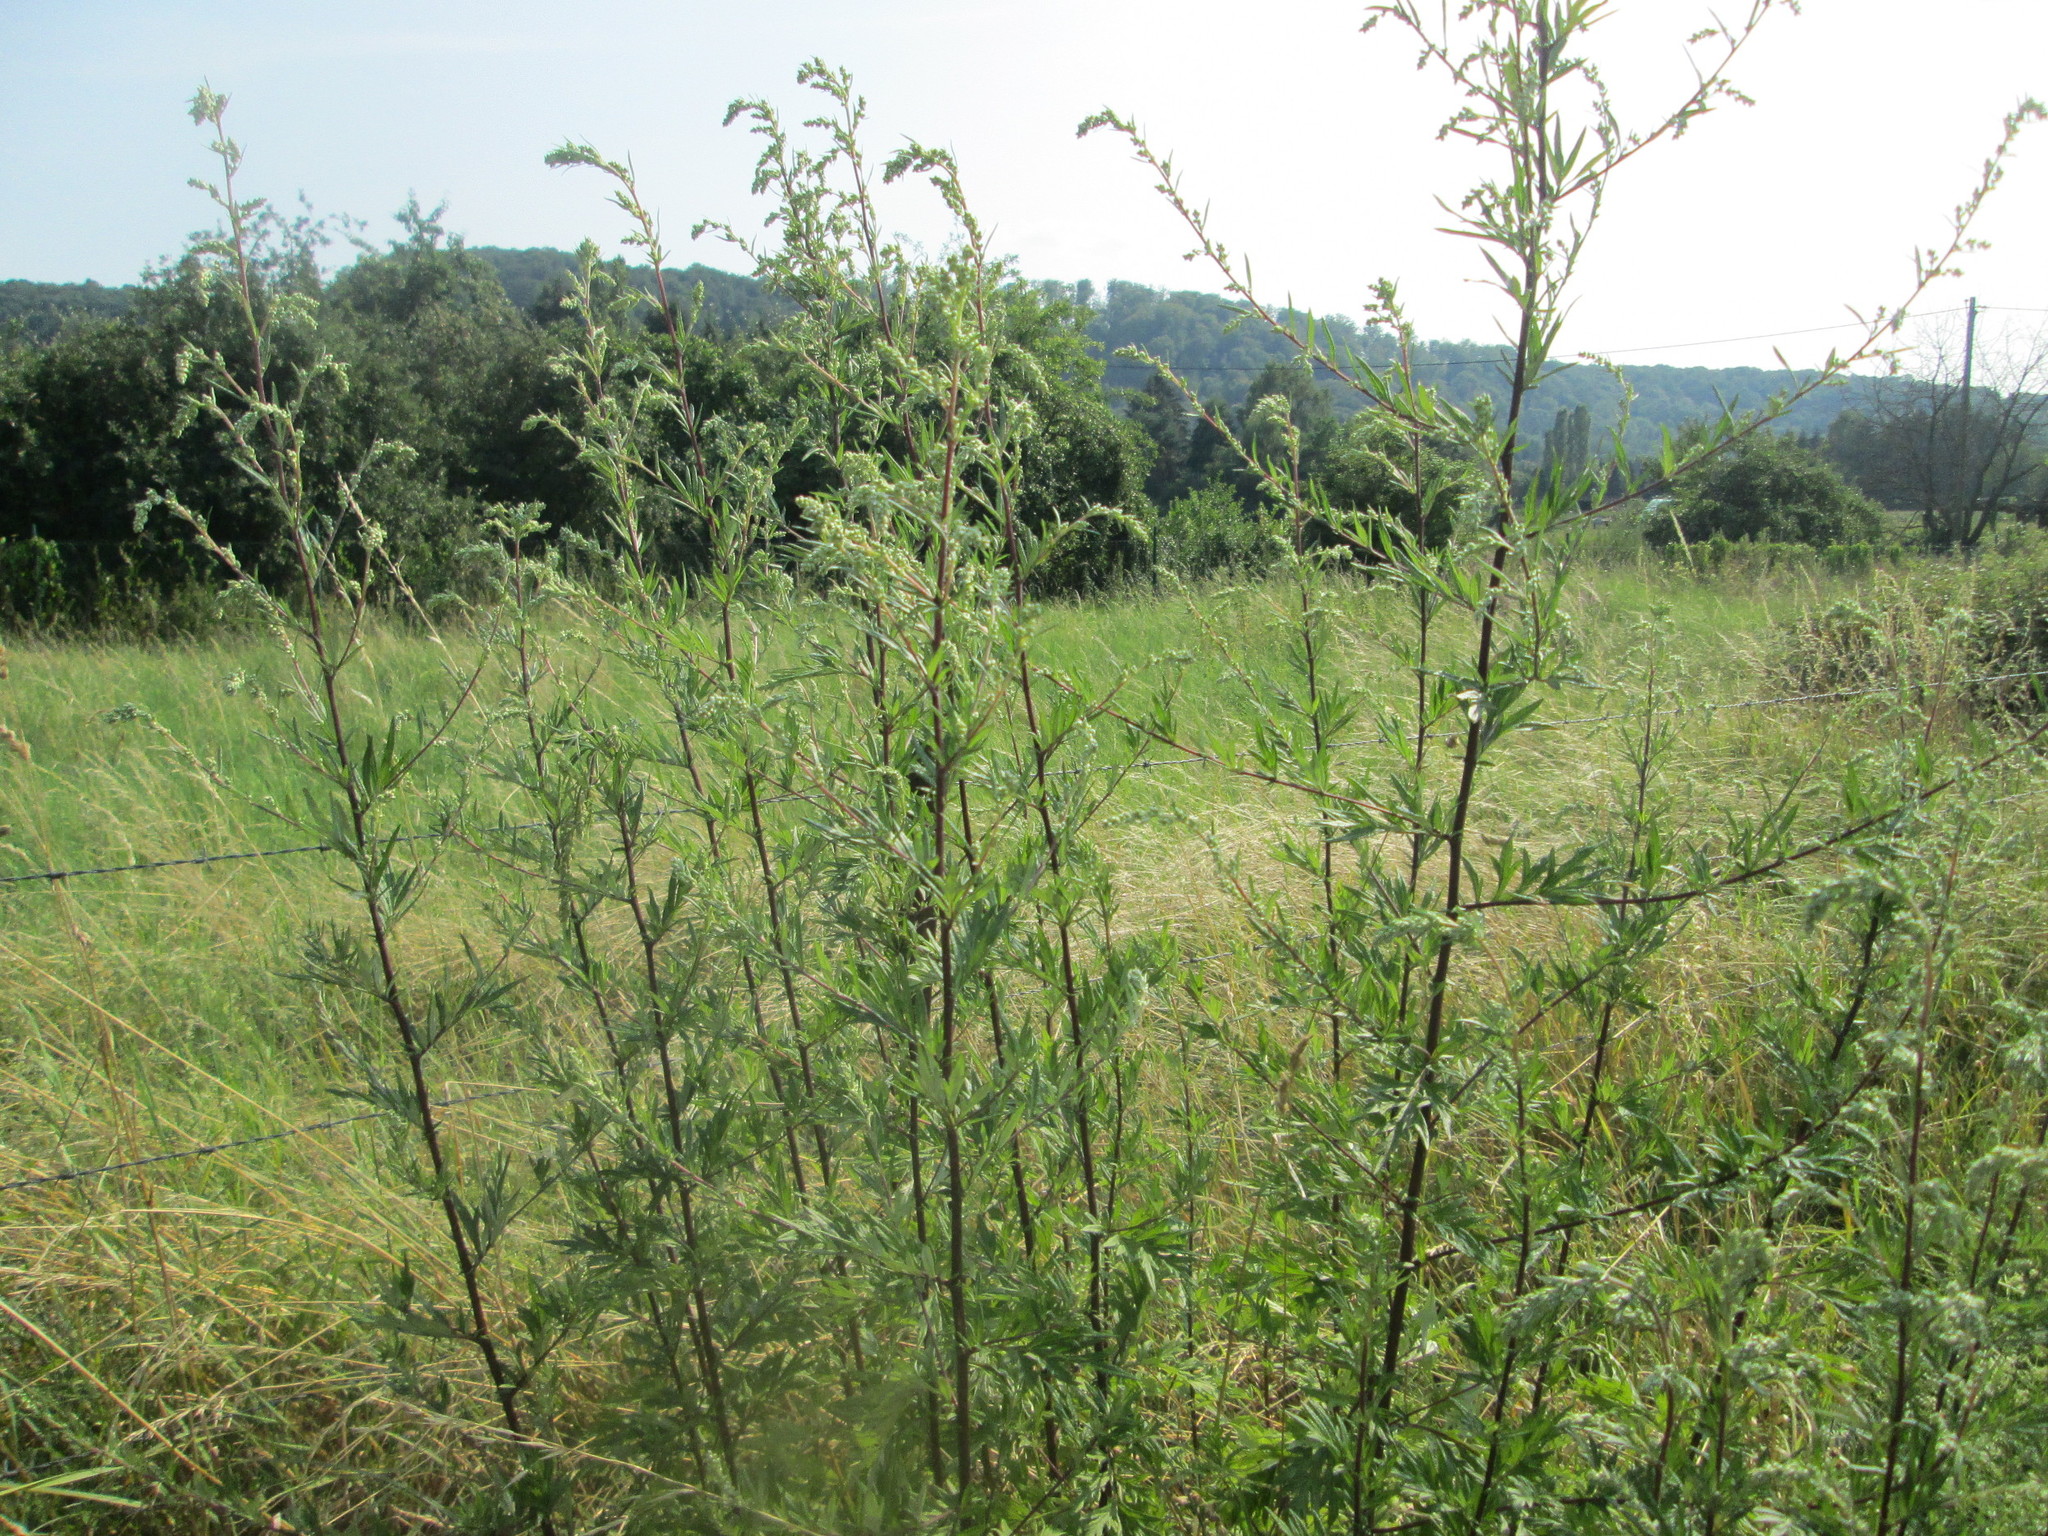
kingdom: Plantae
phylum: Tracheophyta
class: Magnoliopsida
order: Asterales
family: Asteraceae
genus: Artemisia
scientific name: Artemisia vulgaris
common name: Mugwort
